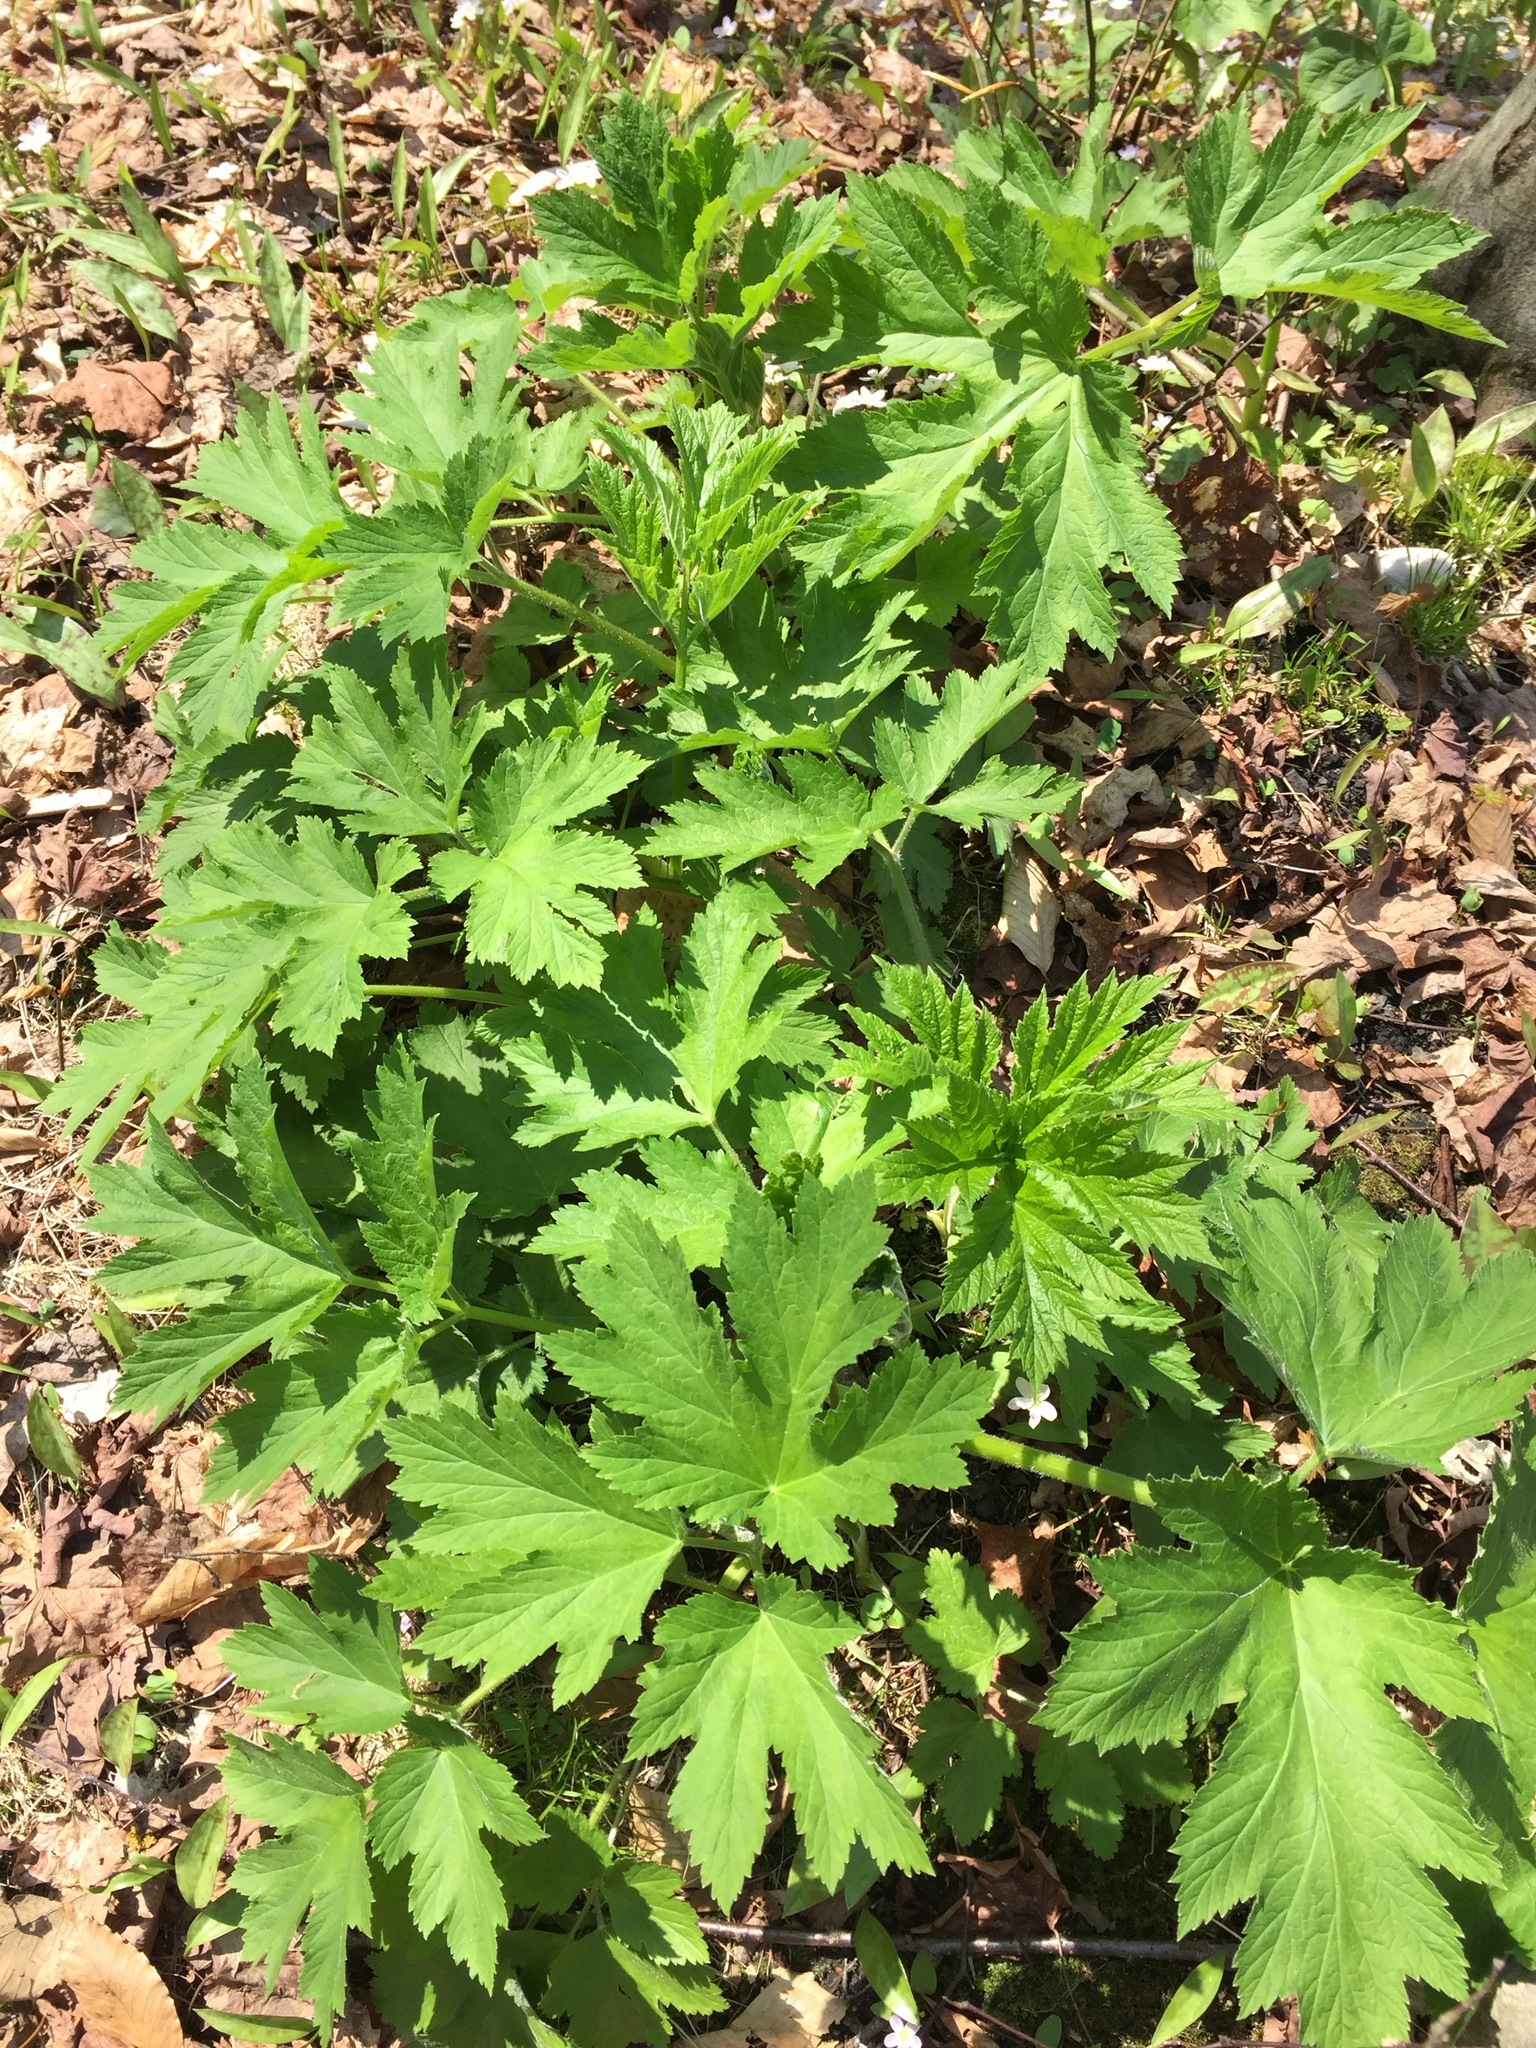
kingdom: Plantae
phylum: Tracheophyta
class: Magnoliopsida
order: Apiales
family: Apiaceae
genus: Heracleum
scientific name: Heracleum maximum
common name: American cow parsnip
